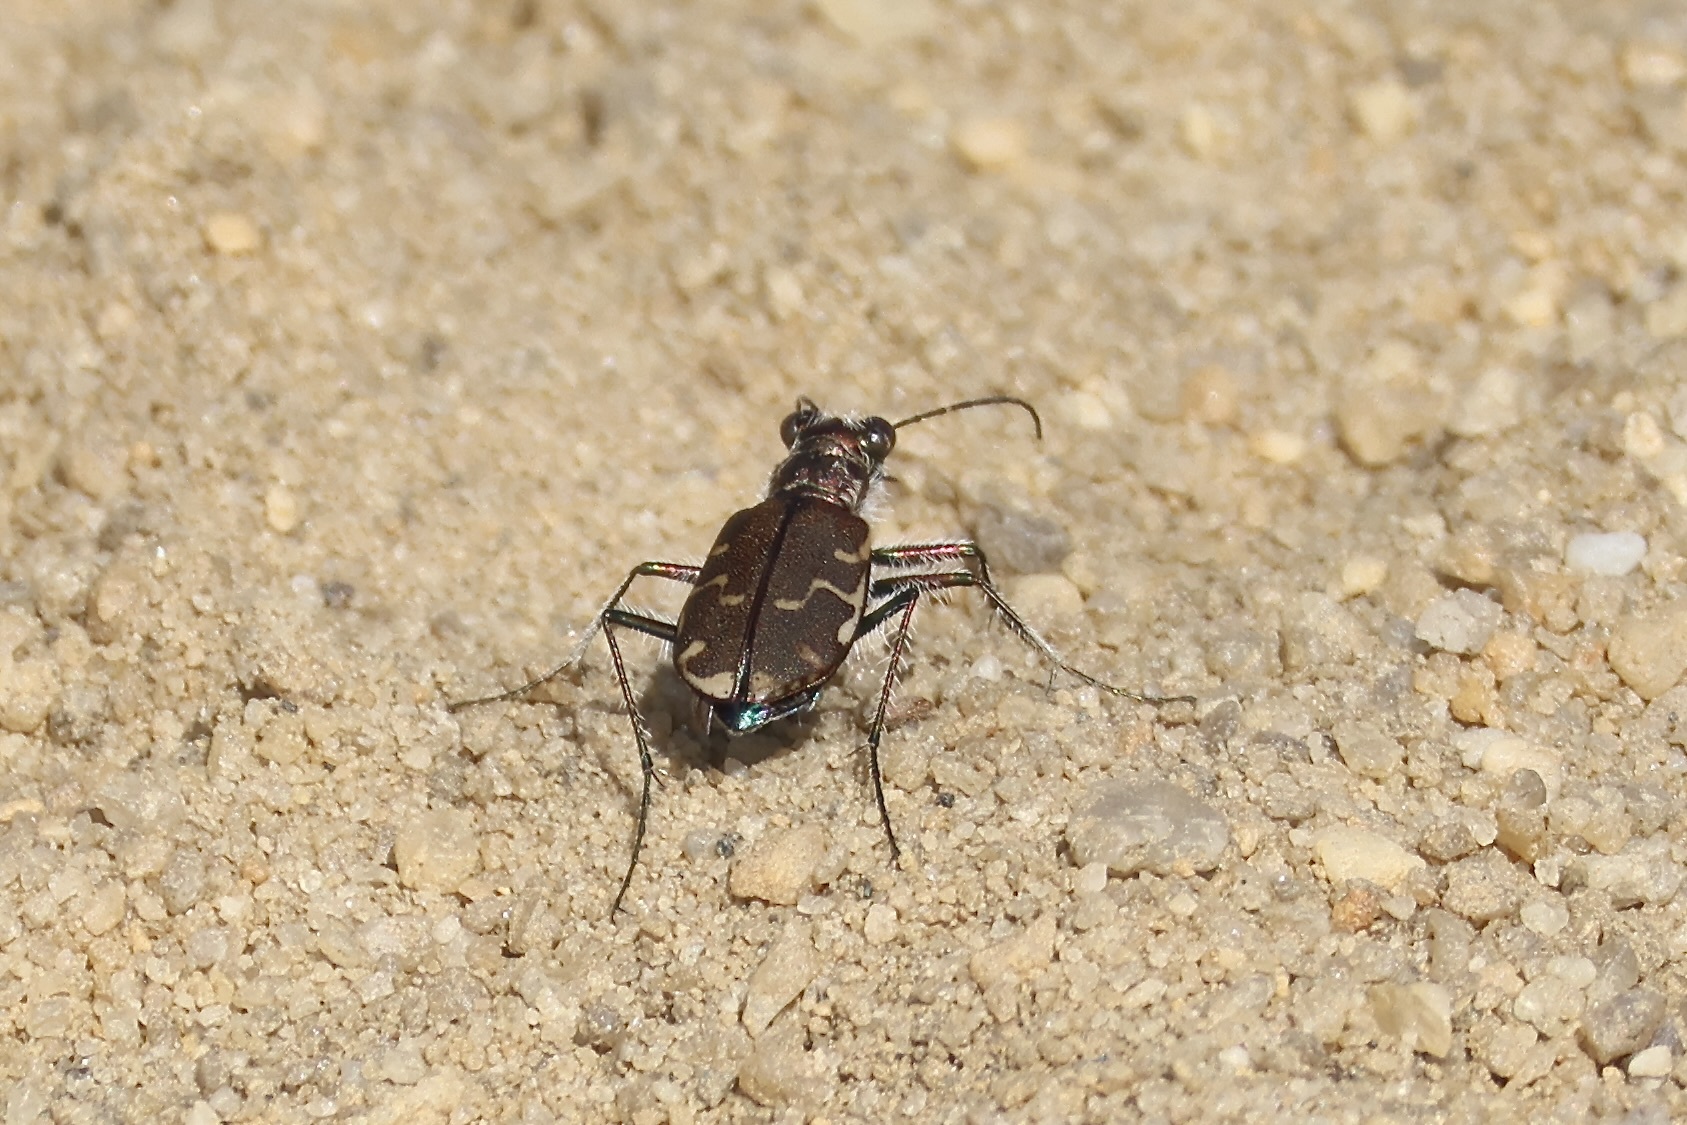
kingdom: Animalia
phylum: Arthropoda
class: Insecta
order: Coleoptera
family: Carabidae
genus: Cicindela
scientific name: Cicindela repanda
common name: Bronzed tiger beetle
